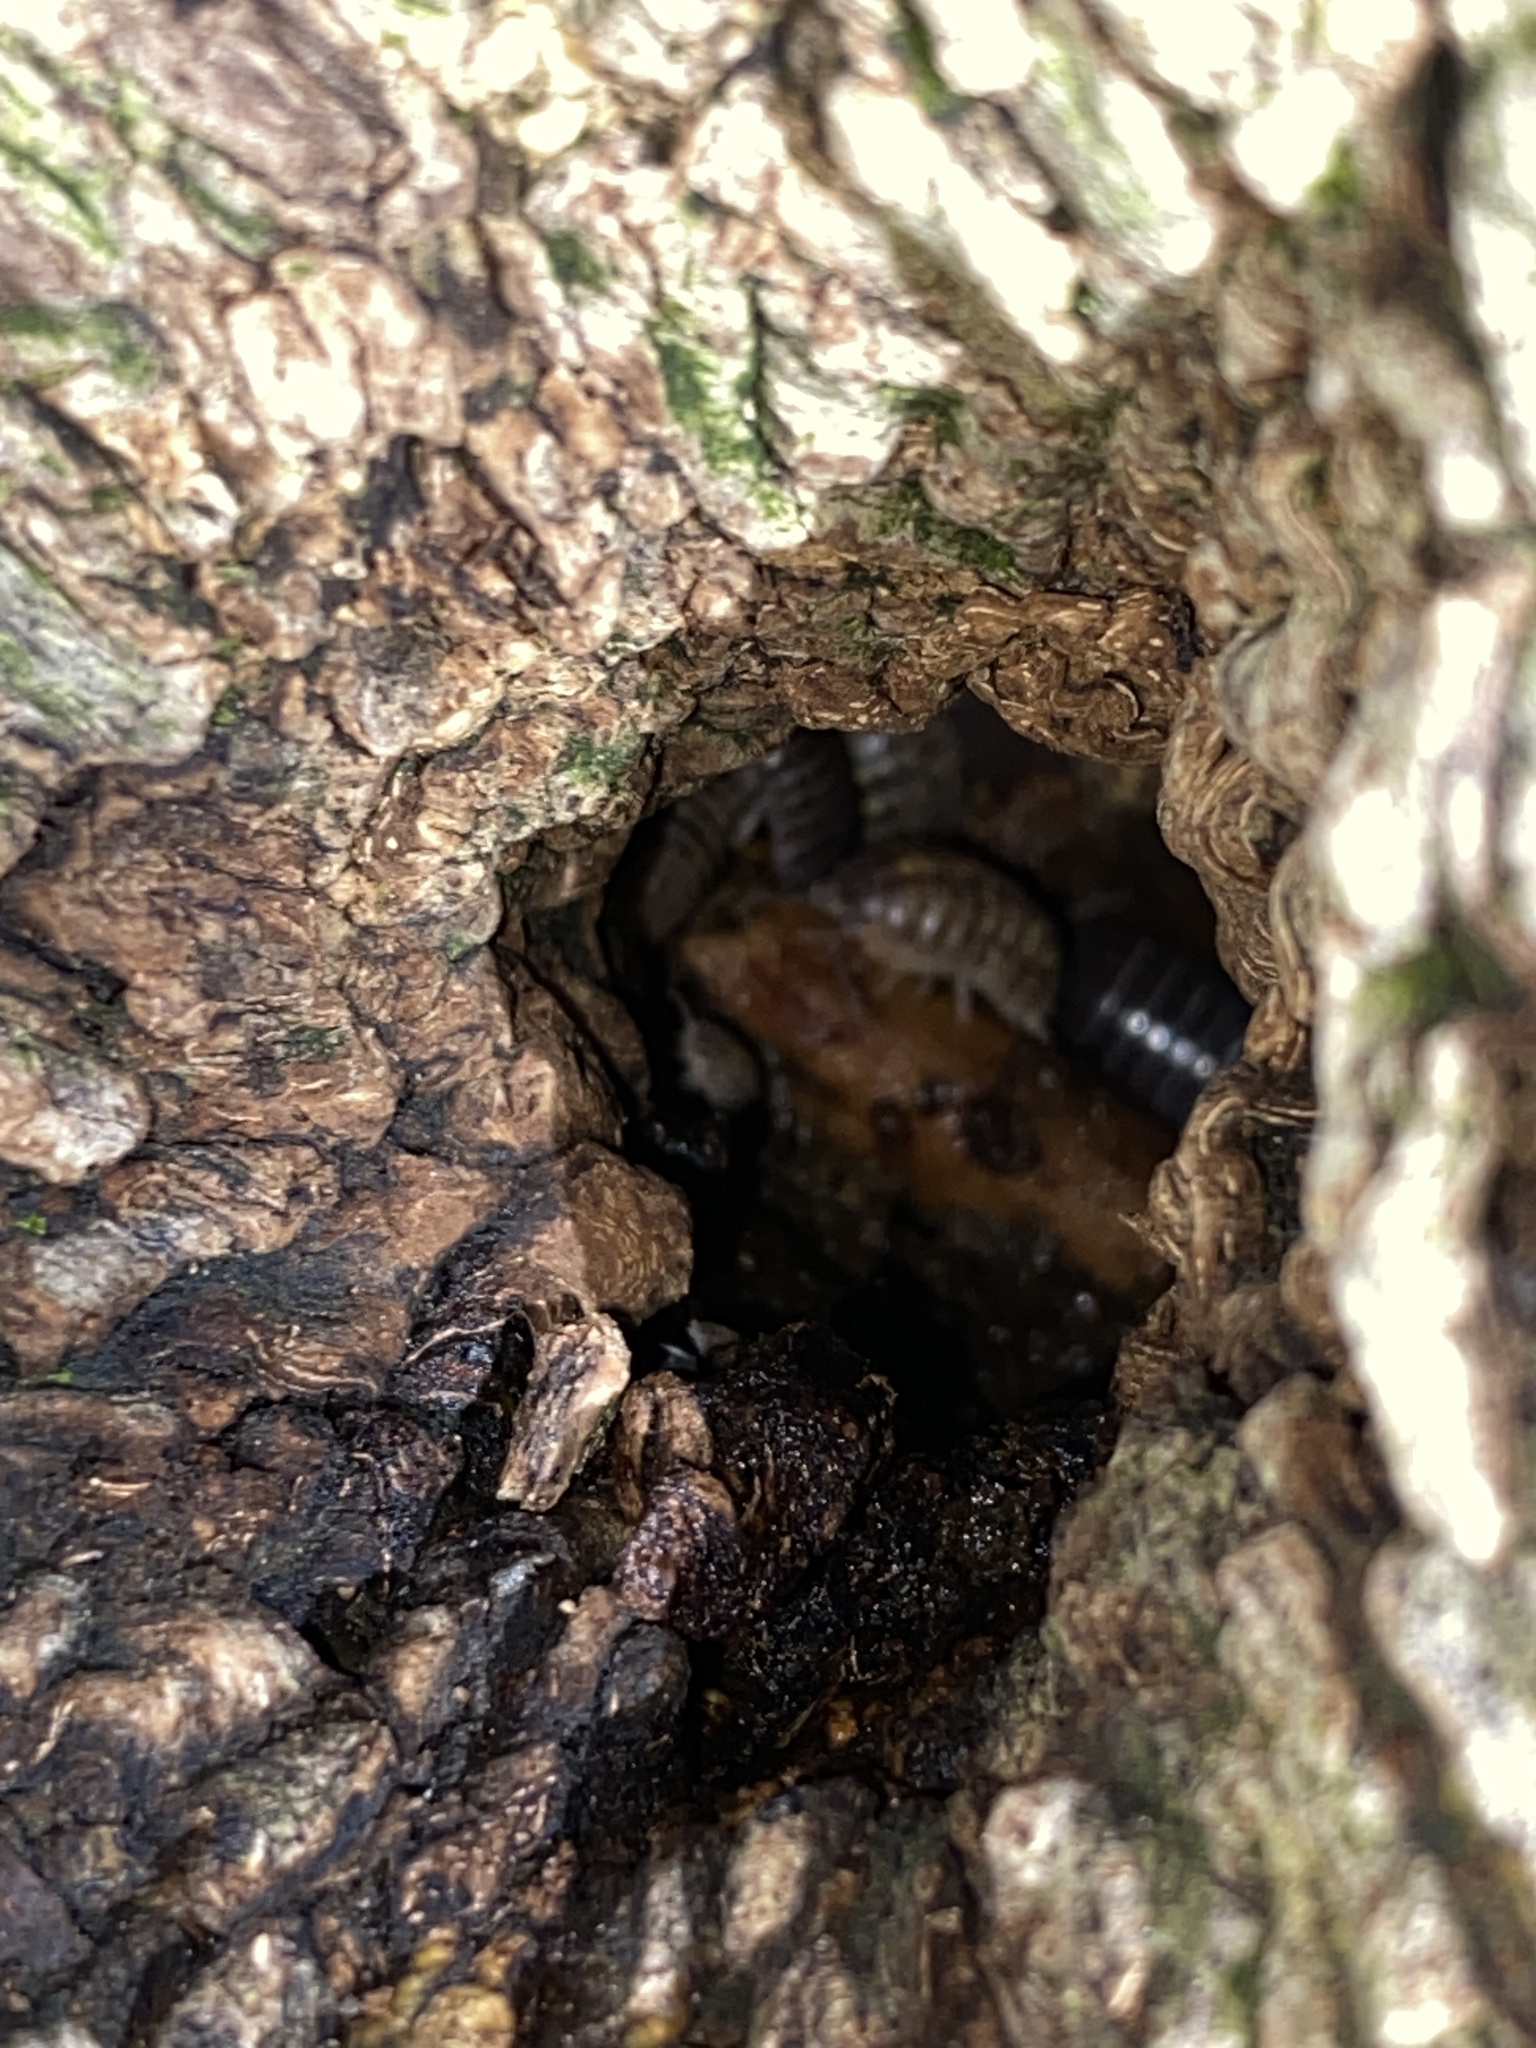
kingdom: Animalia
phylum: Arthropoda
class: Malacostraca
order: Isopoda
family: Armadillidiidae
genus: Armadillidium
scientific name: Armadillidium vulgare
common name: Common pill woodlouse
